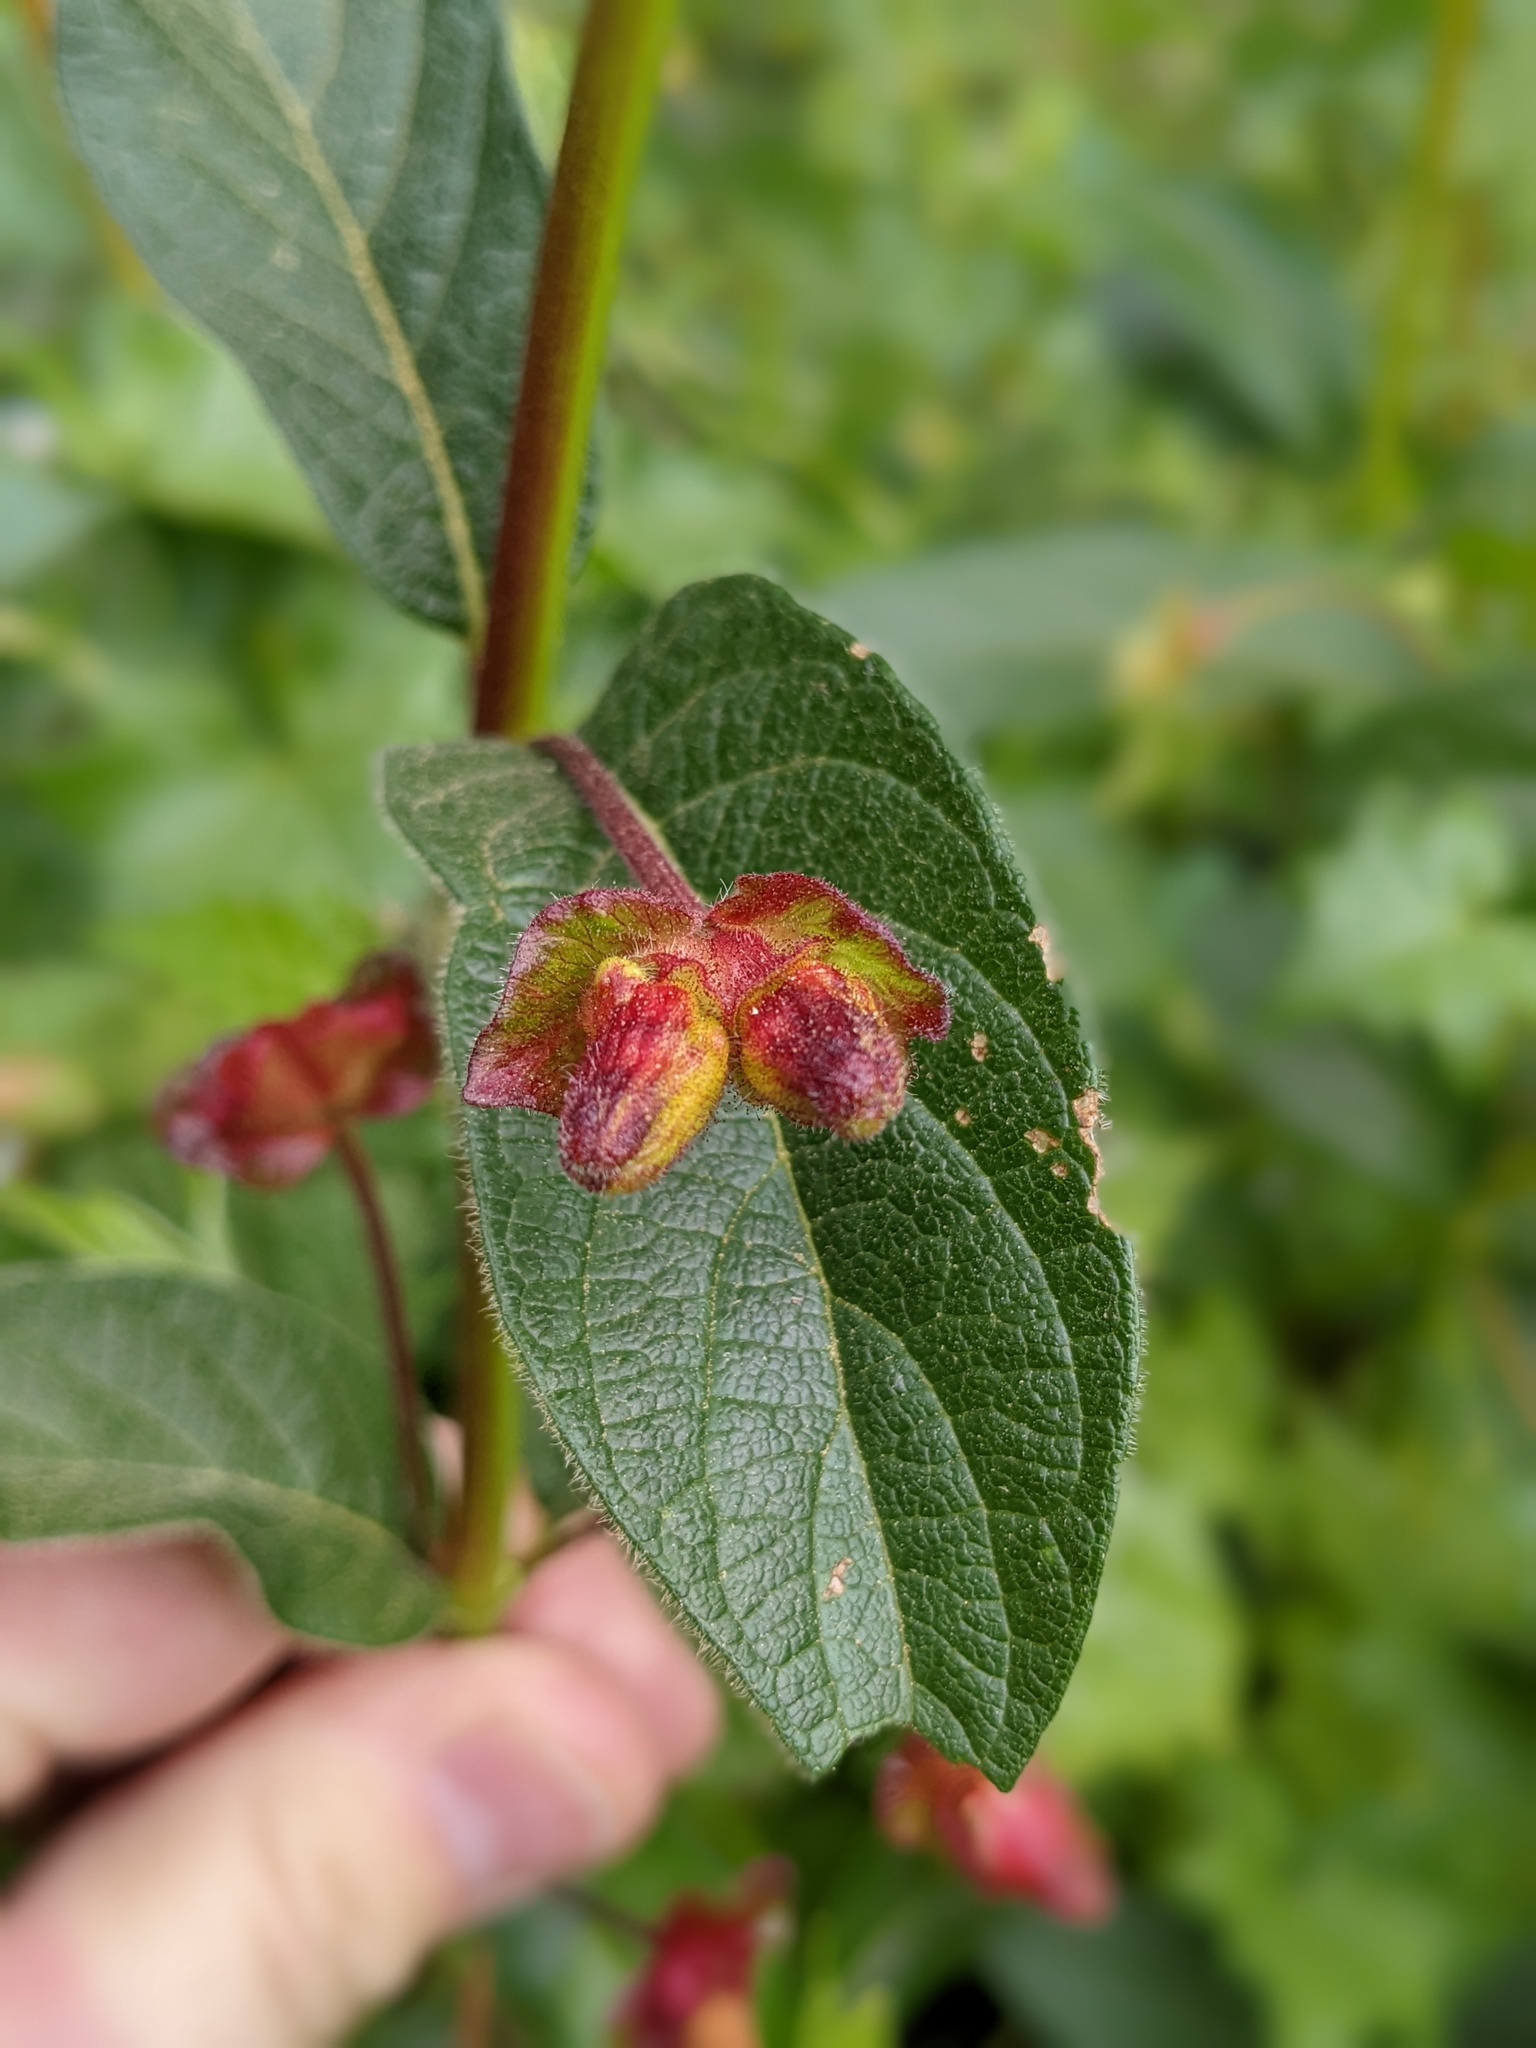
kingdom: Plantae
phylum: Tracheophyta
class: Magnoliopsida
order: Dipsacales
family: Caprifoliaceae
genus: Lonicera
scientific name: Lonicera involucrata
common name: Californian honeysuckle
